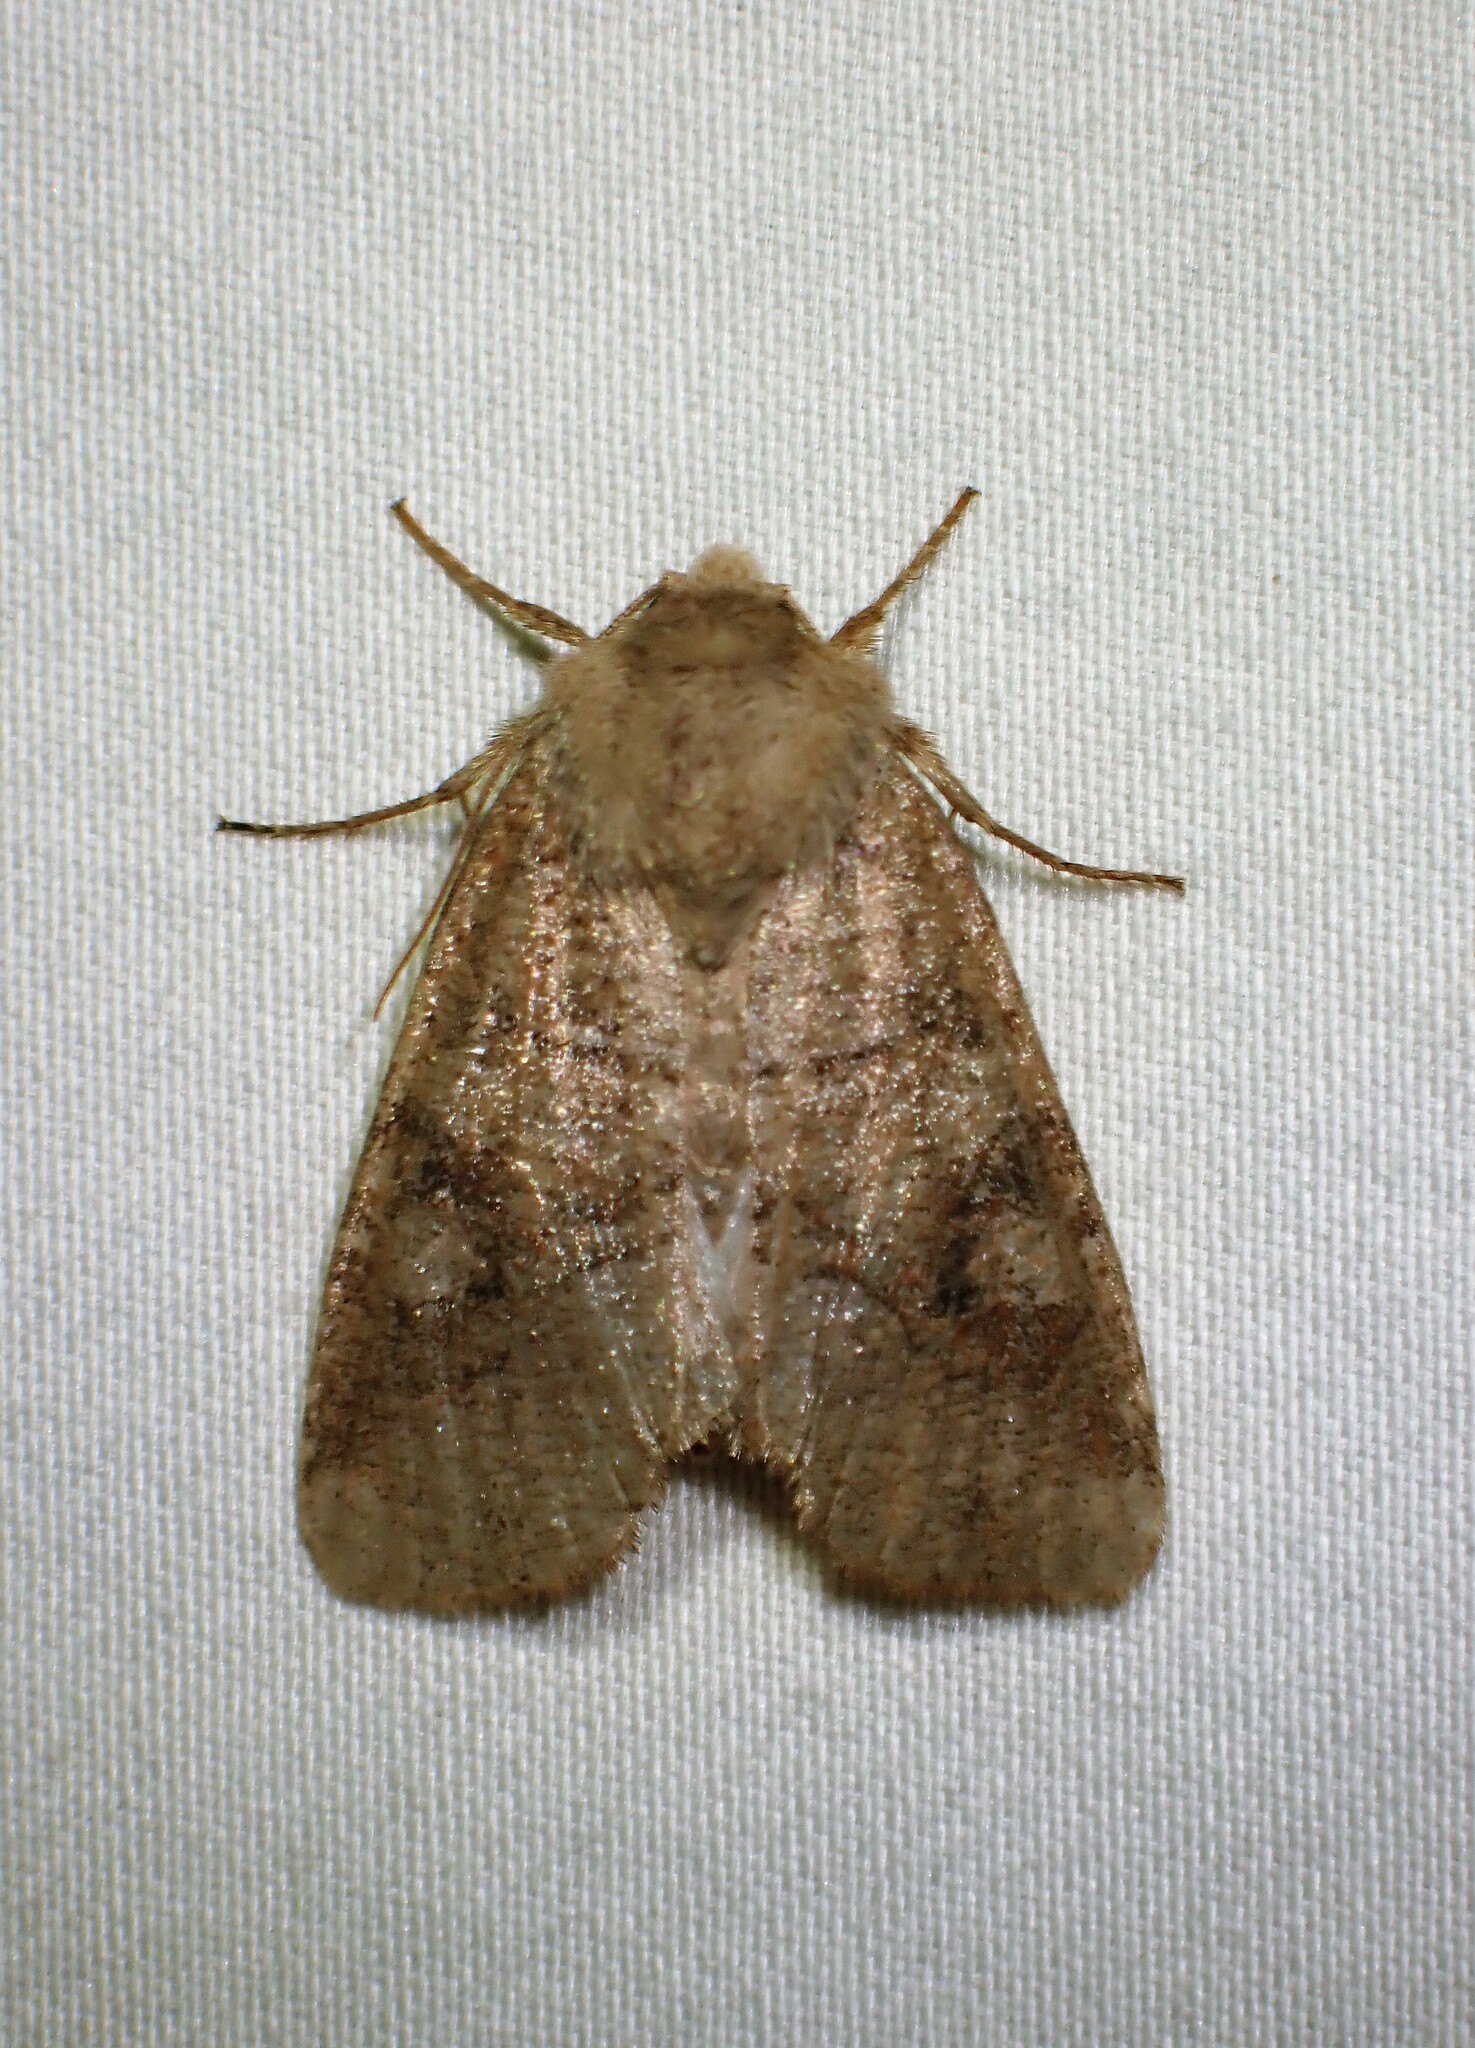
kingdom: Animalia
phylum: Arthropoda
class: Insecta
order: Lepidoptera
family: Noctuidae
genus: Crocigrapha
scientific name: Crocigrapha normani
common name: Norman's quaker
